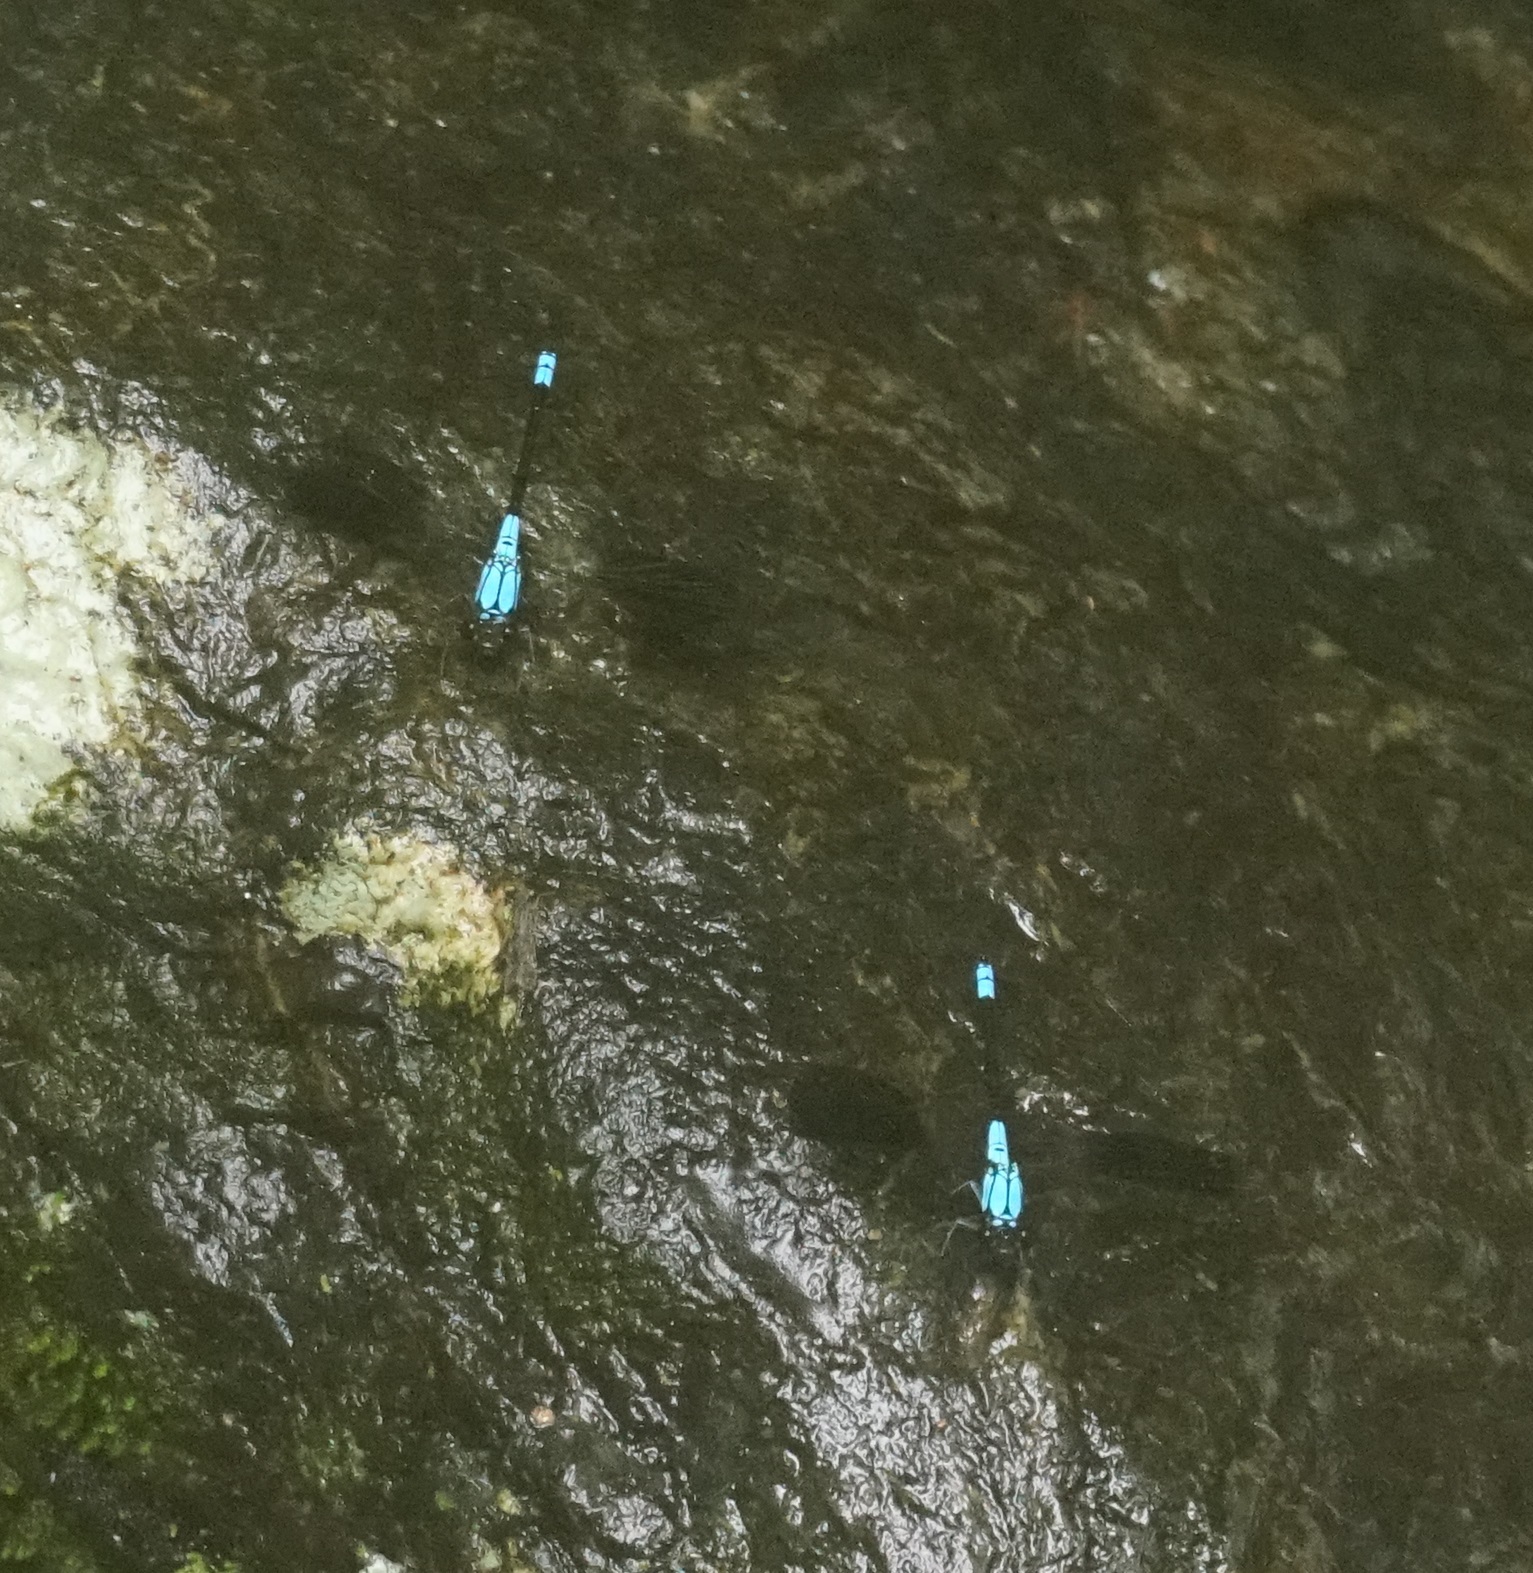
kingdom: Animalia
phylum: Arthropoda
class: Insecta
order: Odonata
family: Lestoideidae
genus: Diphlebia
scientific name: Diphlebia euphoeoides
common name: Tropical rockmaster
